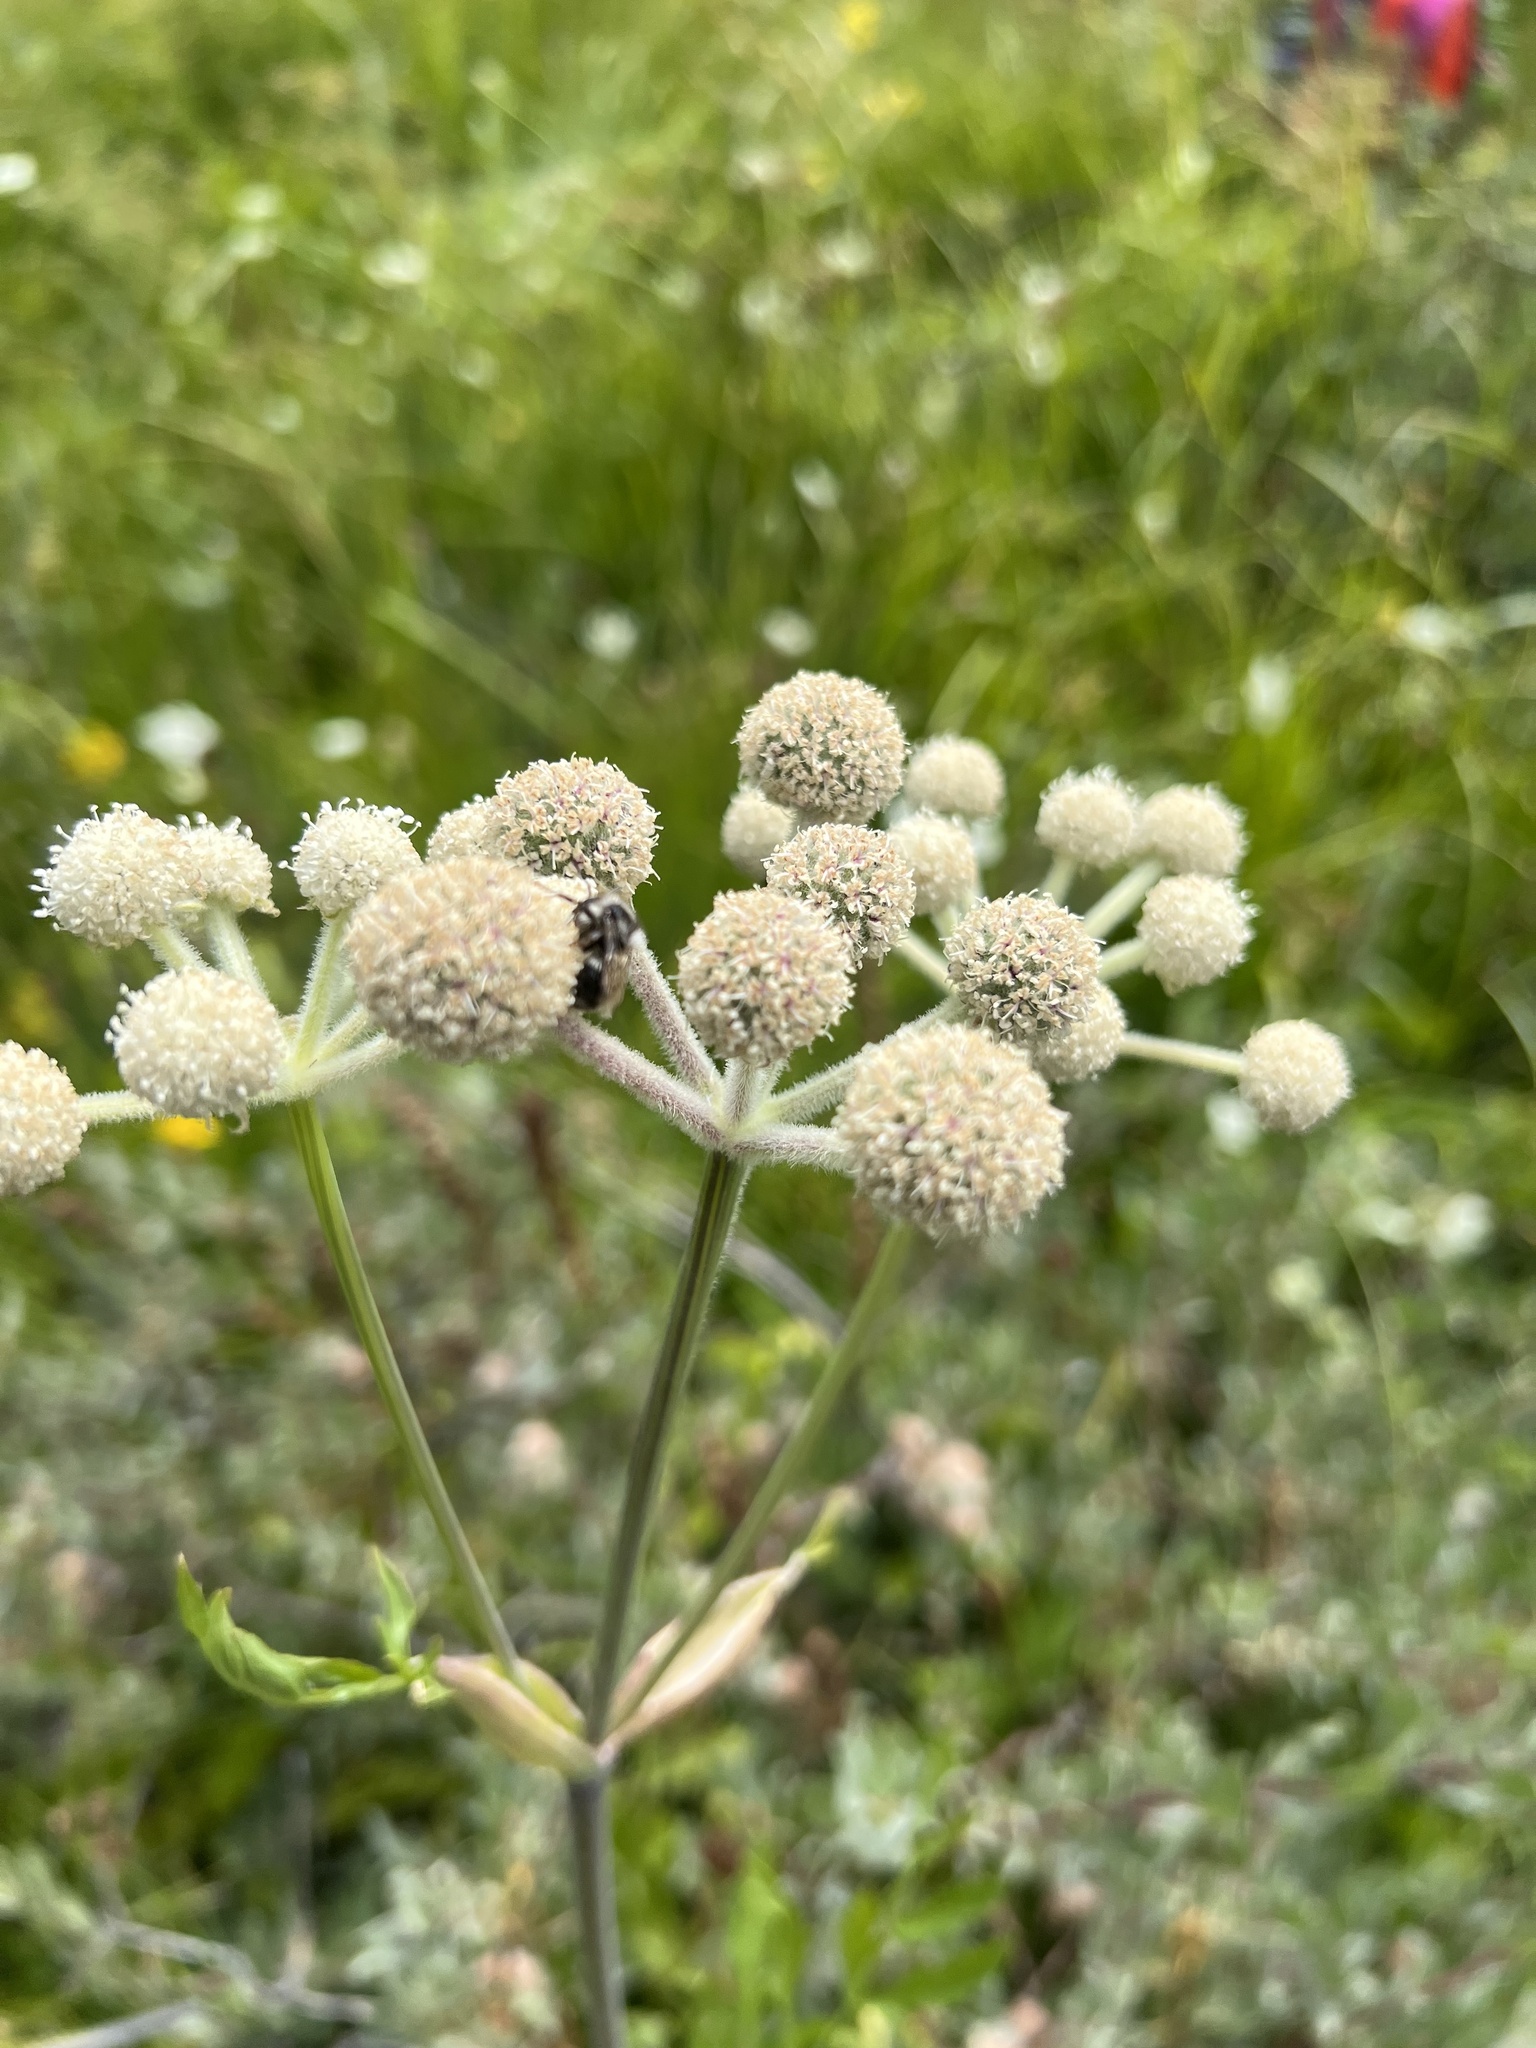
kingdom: Plantae
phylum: Tracheophyta
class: Magnoliopsida
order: Apiales
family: Apiaceae
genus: Angelica
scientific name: Angelica capitellata
